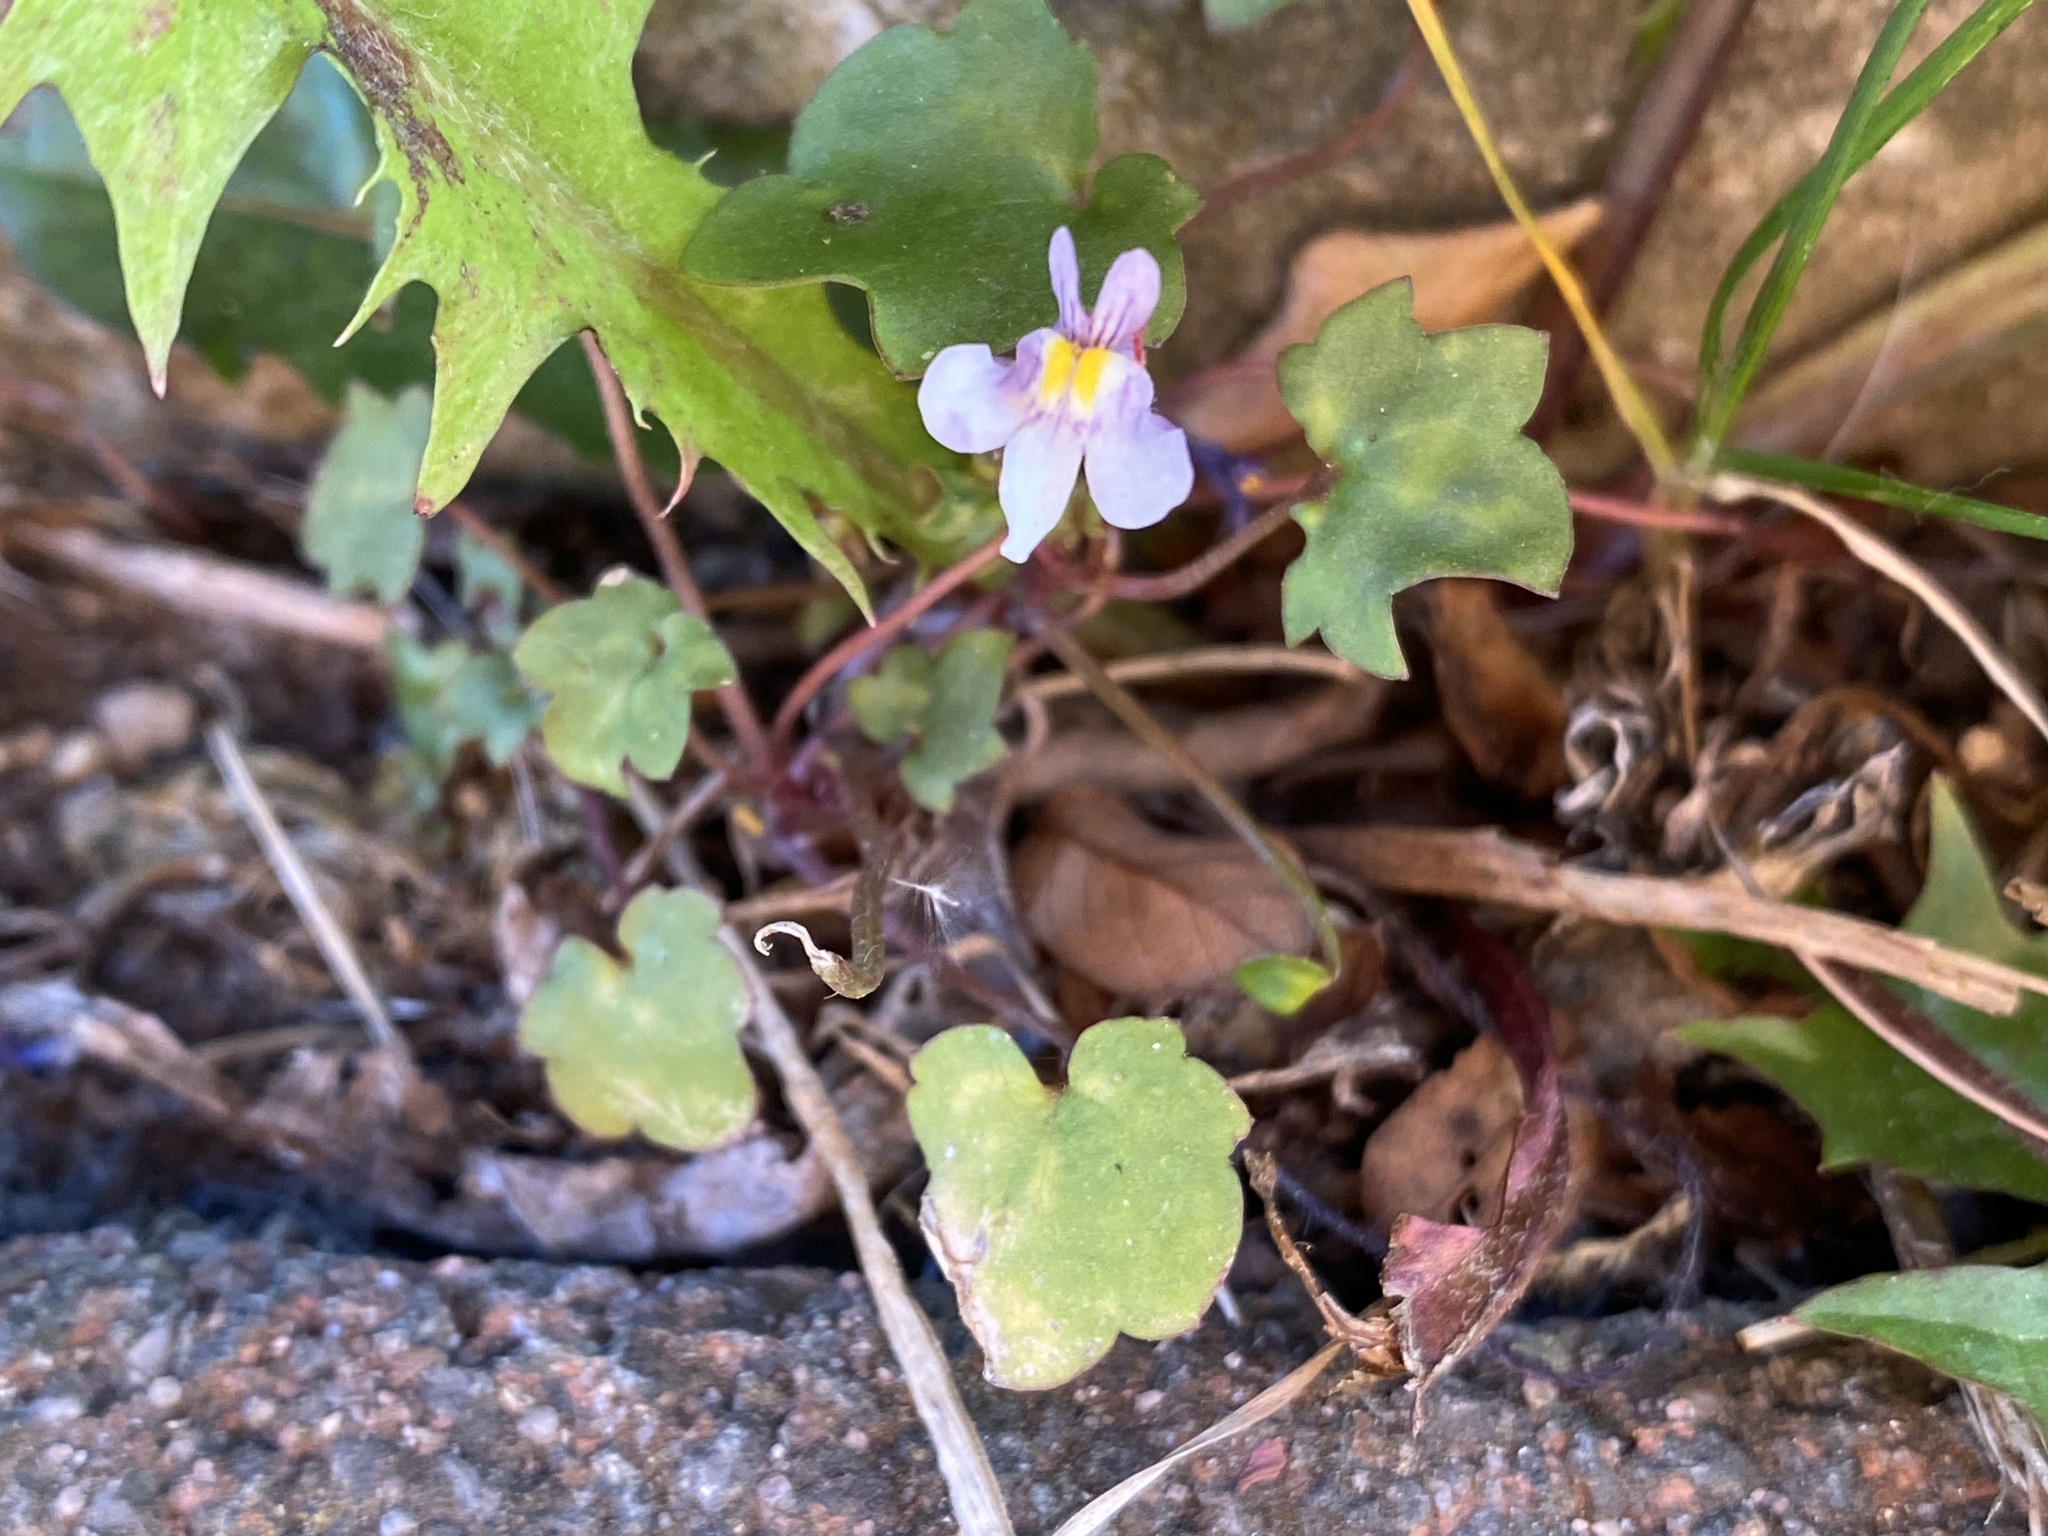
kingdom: Plantae
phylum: Tracheophyta
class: Magnoliopsida
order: Lamiales
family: Plantaginaceae
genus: Cymbalaria
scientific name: Cymbalaria muralis
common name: Ivy-leaved toadflax
